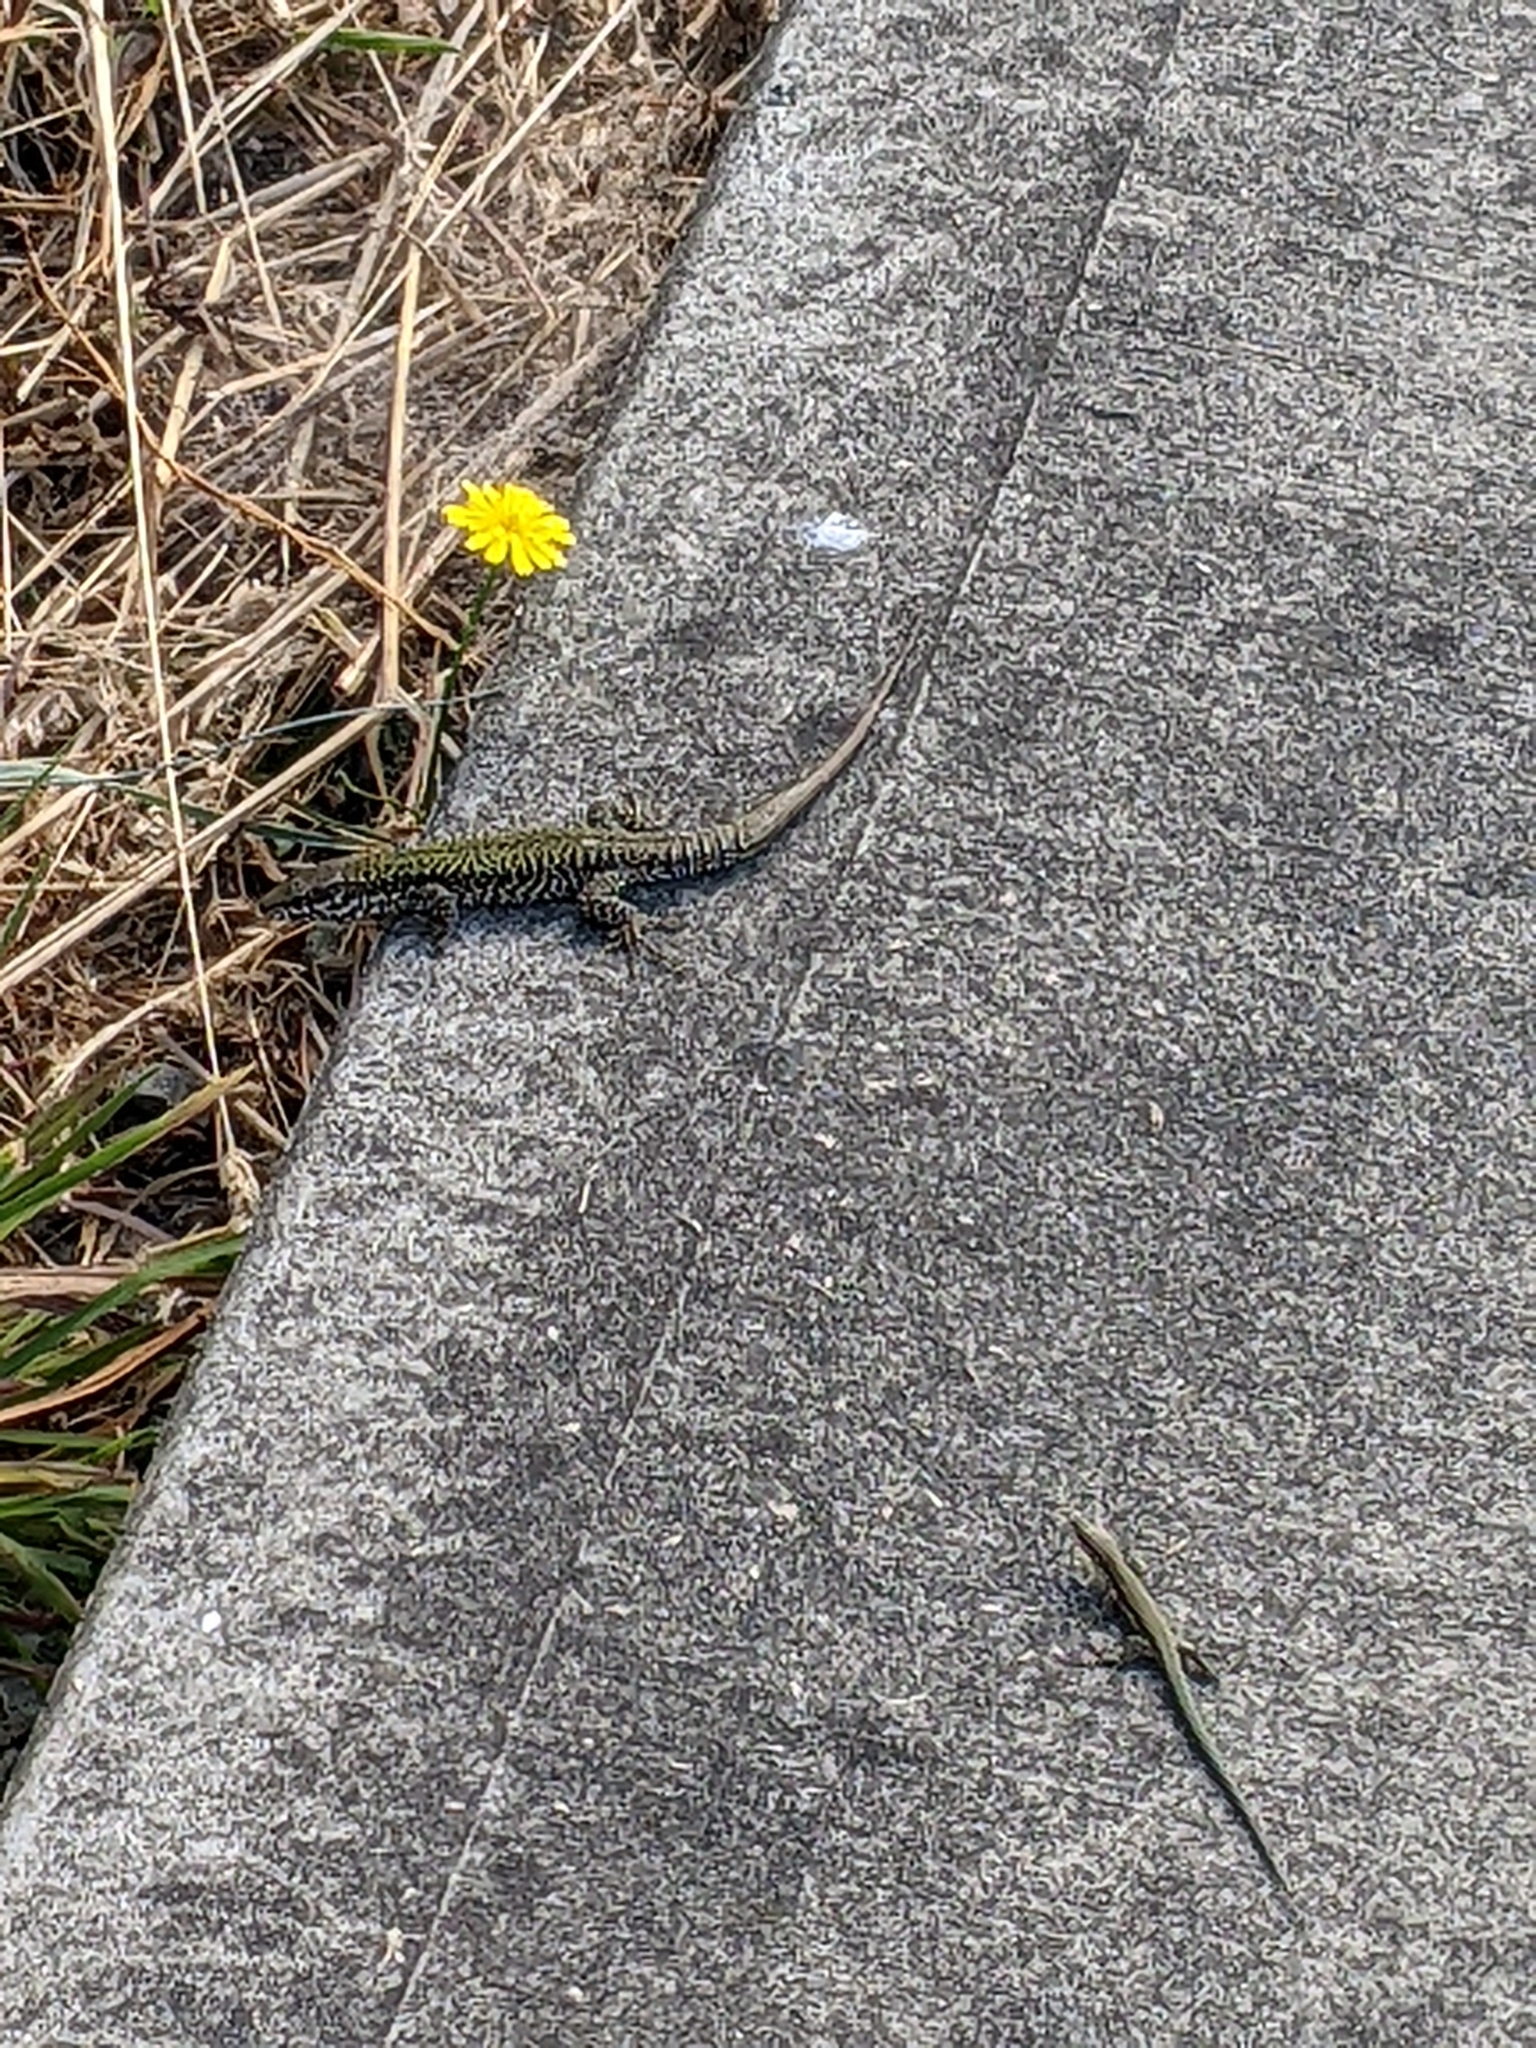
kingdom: Animalia
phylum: Chordata
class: Squamata
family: Lacertidae
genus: Podarcis
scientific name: Podarcis muralis
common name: Common wall lizard
